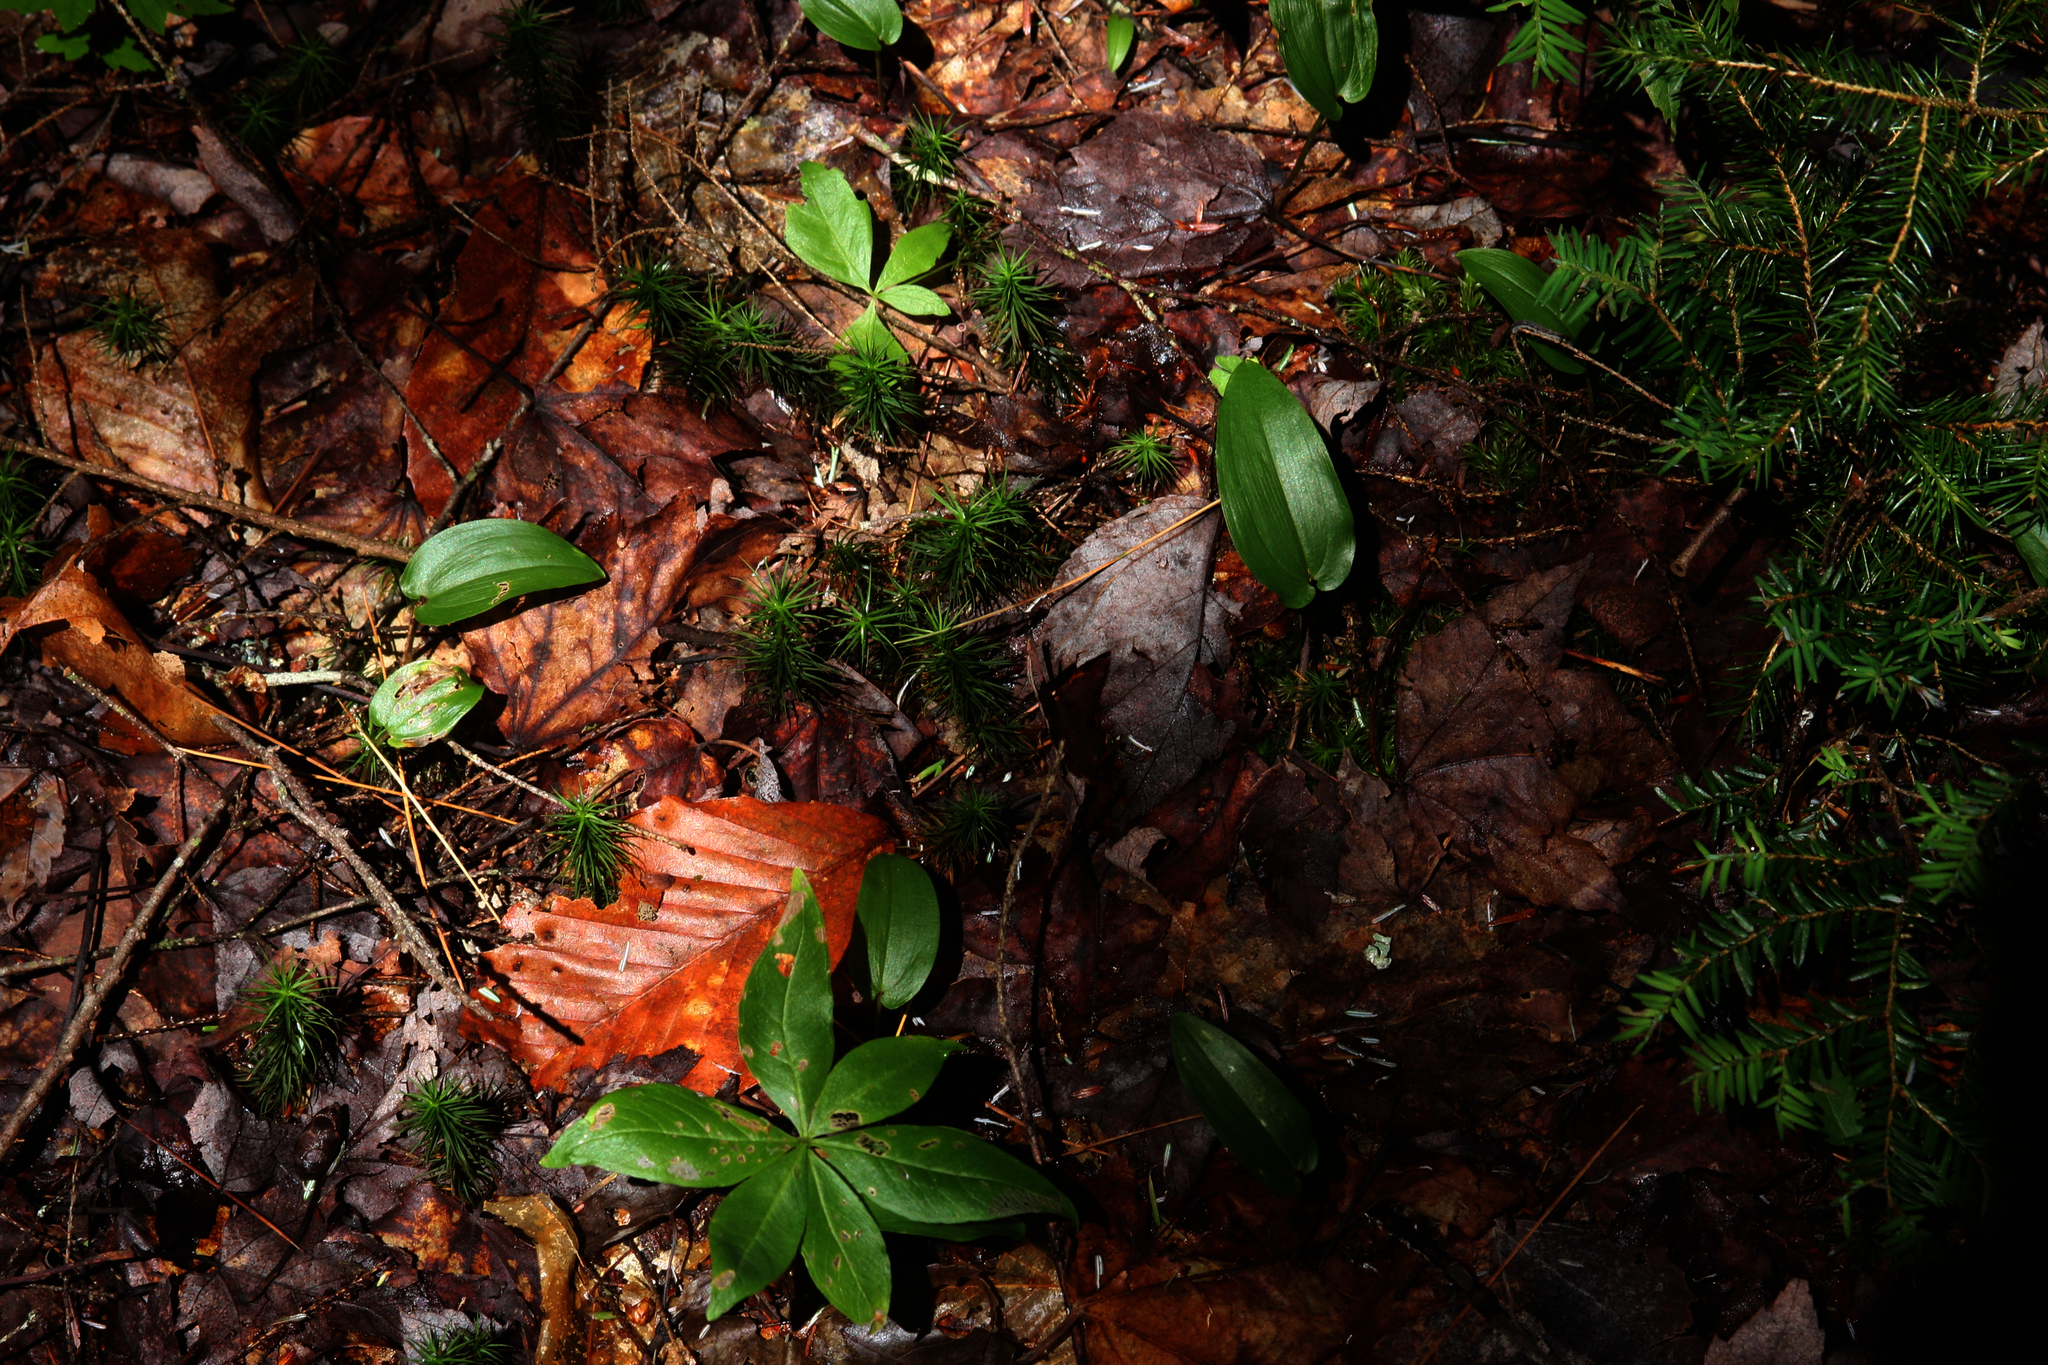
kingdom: Plantae
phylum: Tracheophyta
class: Pinopsida
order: Pinales
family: Pinaceae
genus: Tsuga
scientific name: Tsuga canadensis
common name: Eastern hemlock
